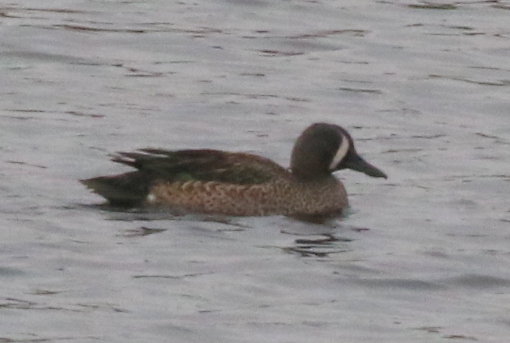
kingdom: Animalia
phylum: Chordata
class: Aves
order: Anseriformes
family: Anatidae
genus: Spatula
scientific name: Spatula discors
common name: Blue-winged teal
